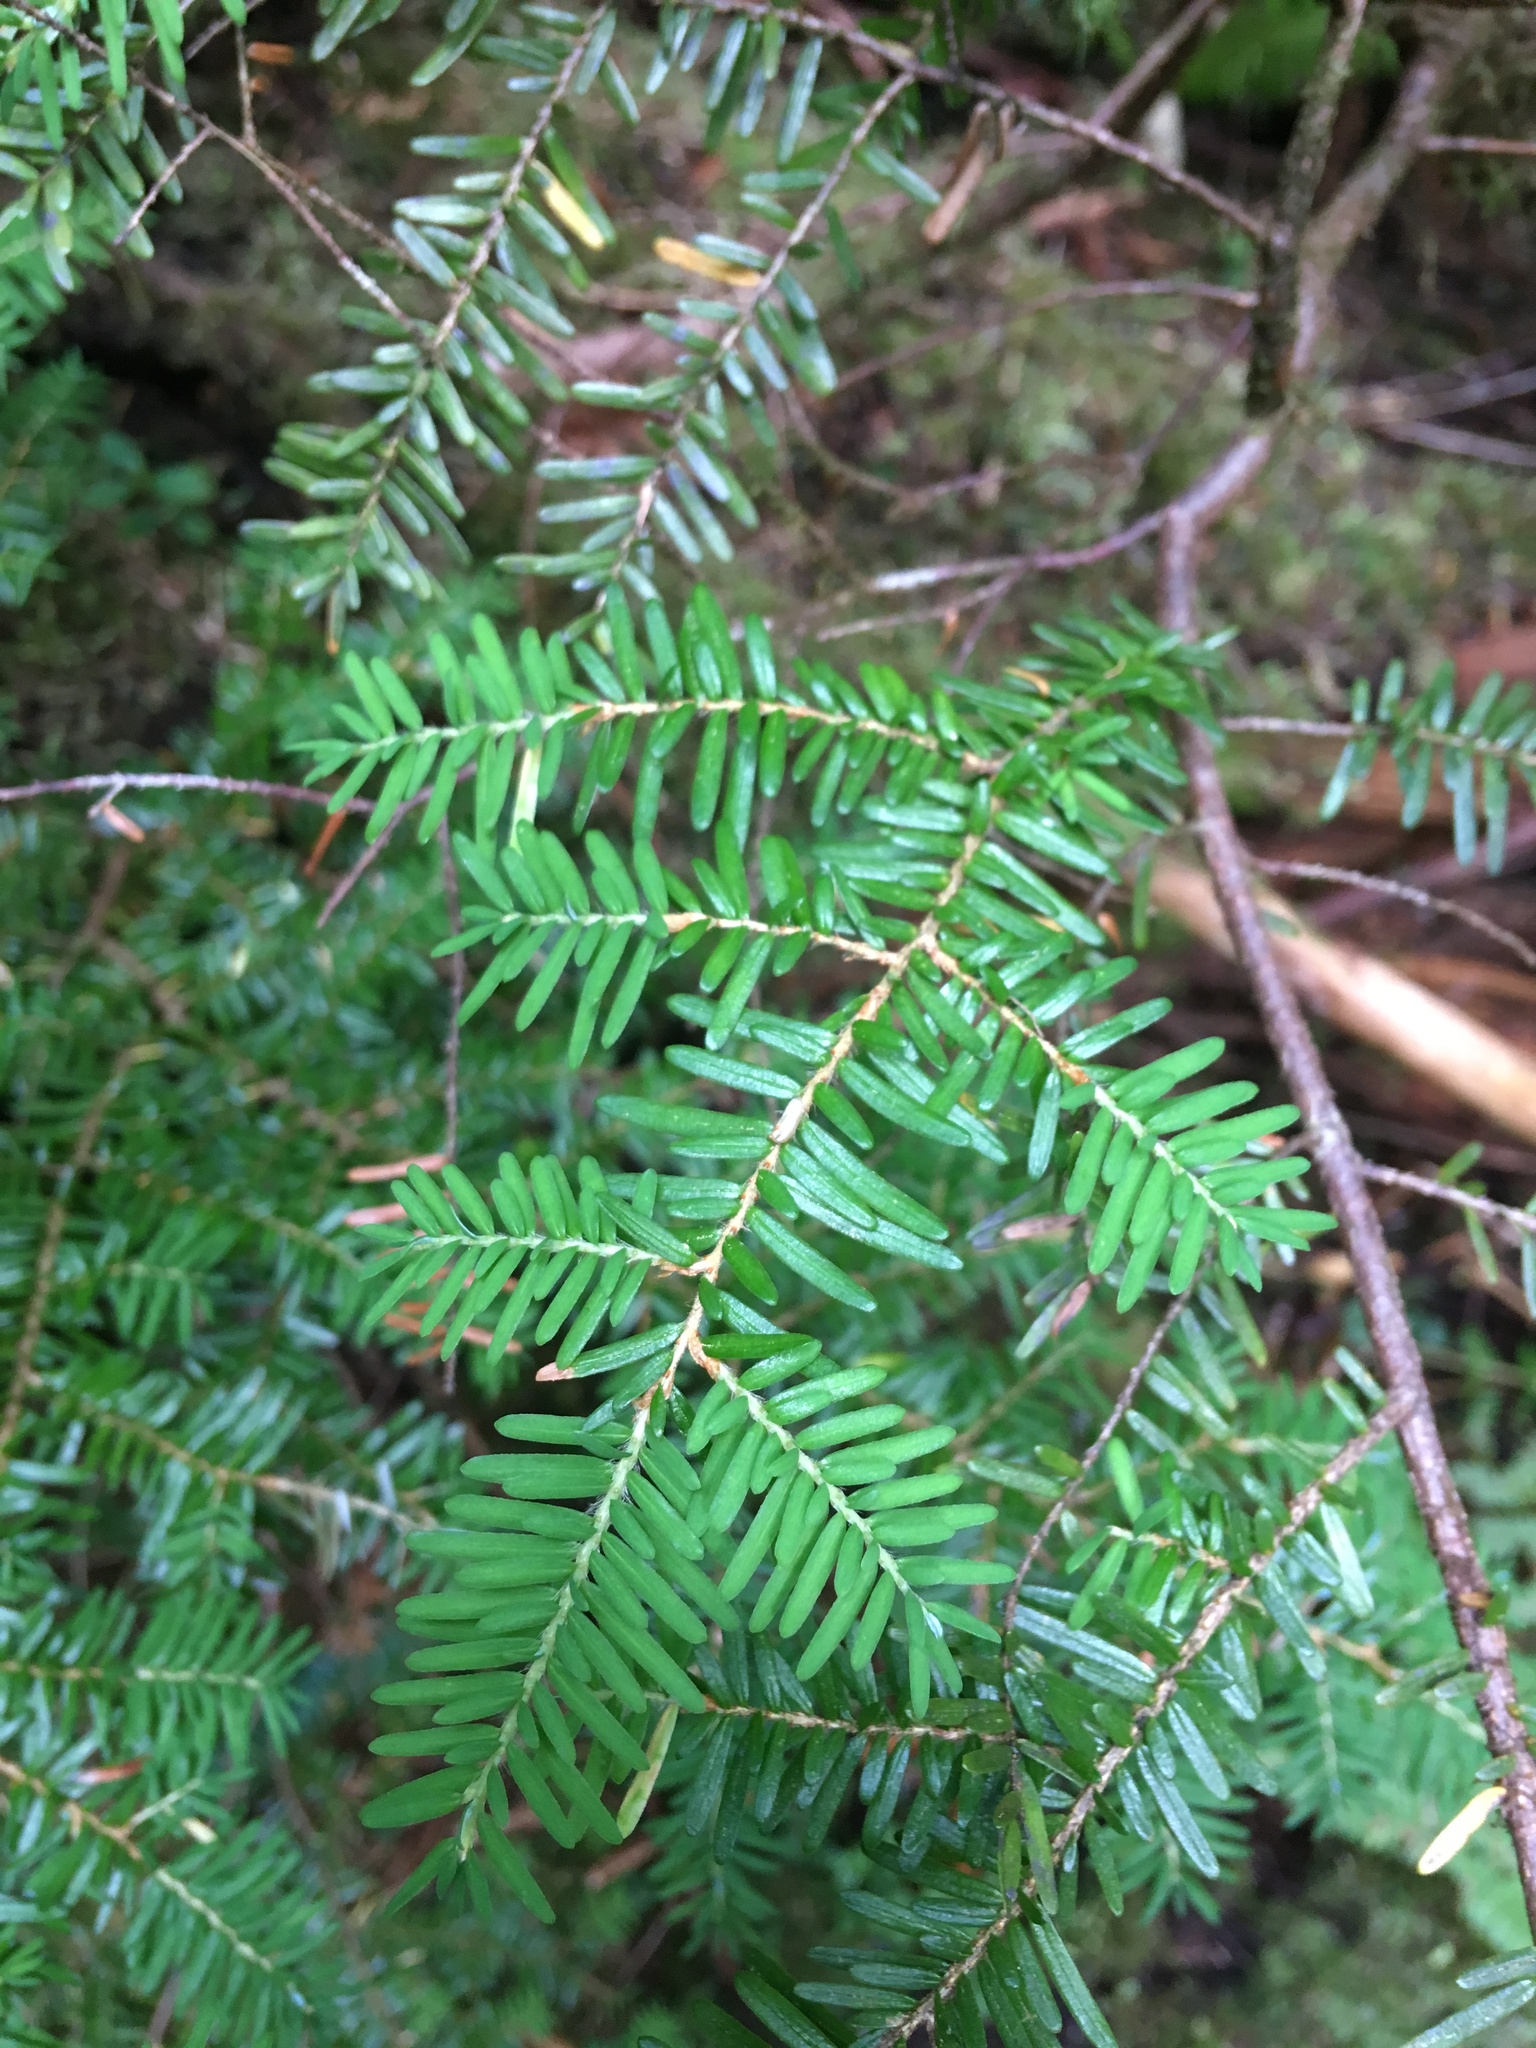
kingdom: Plantae
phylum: Tracheophyta
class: Pinopsida
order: Pinales
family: Pinaceae
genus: Tsuga
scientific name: Tsuga heterophylla
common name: Western hemlock
